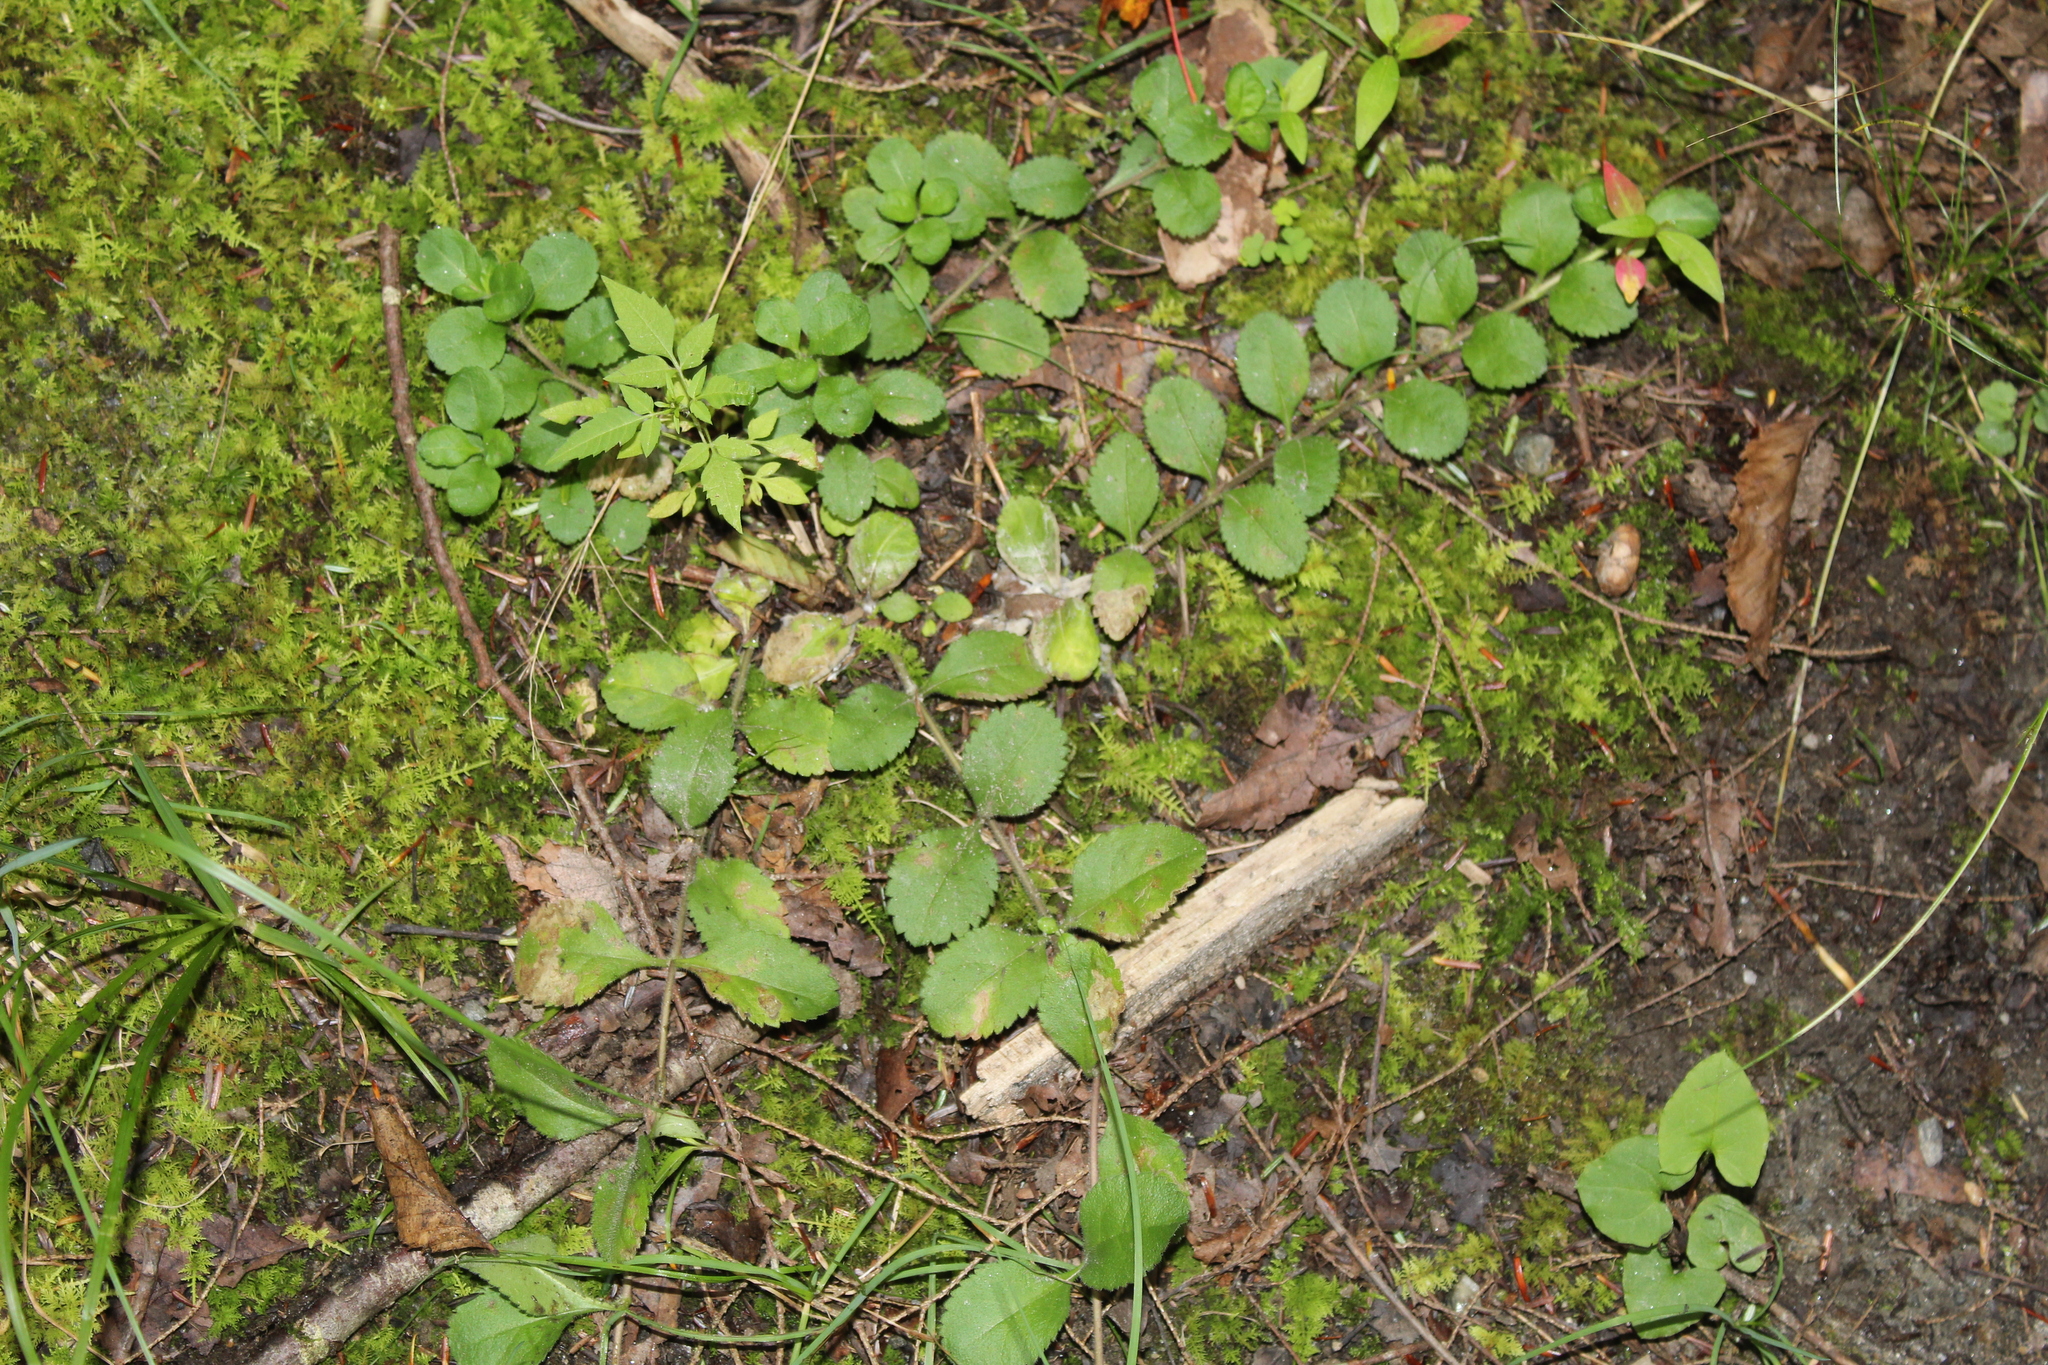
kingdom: Plantae
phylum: Tracheophyta
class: Magnoliopsida
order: Lamiales
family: Plantaginaceae
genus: Veronica
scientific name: Veronica officinalis
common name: Common speedwell
